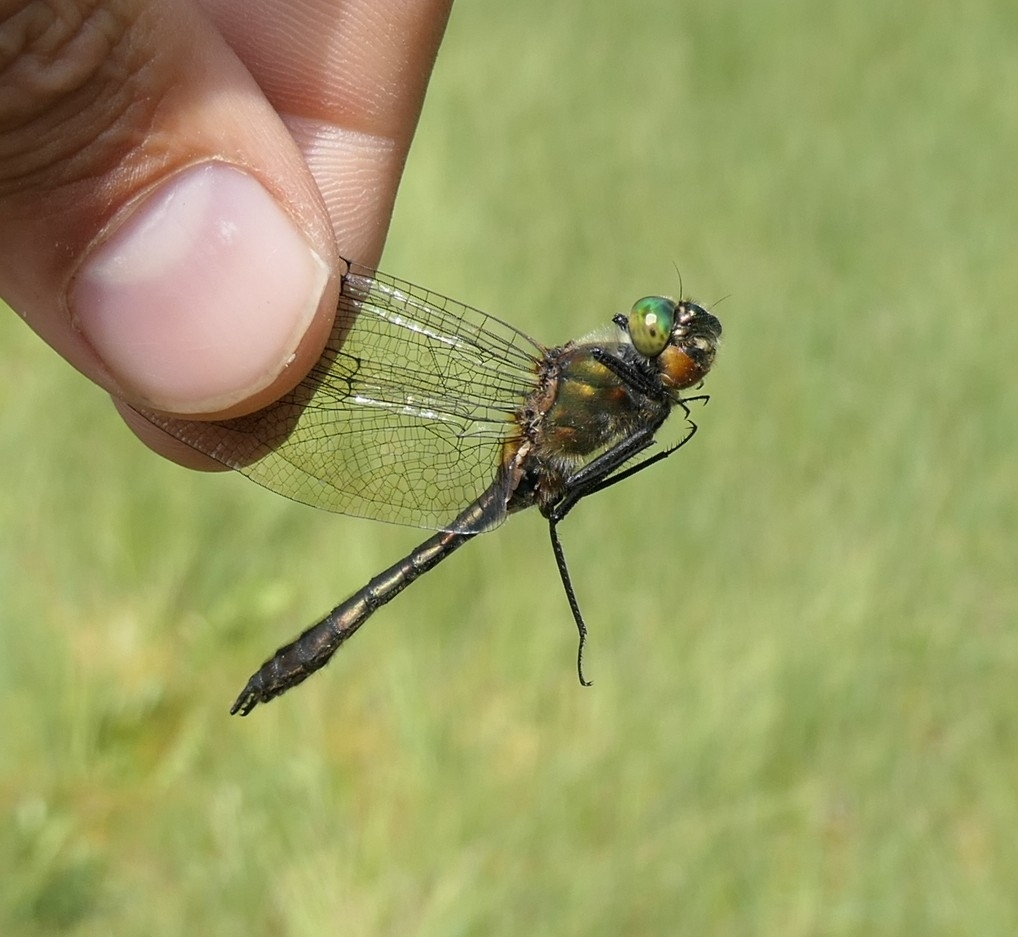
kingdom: Animalia
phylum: Arthropoda
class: Insecta
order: Odonata
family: Corduliidae
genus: Cordulia
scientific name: Cordulia aenea
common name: Downy emerald
